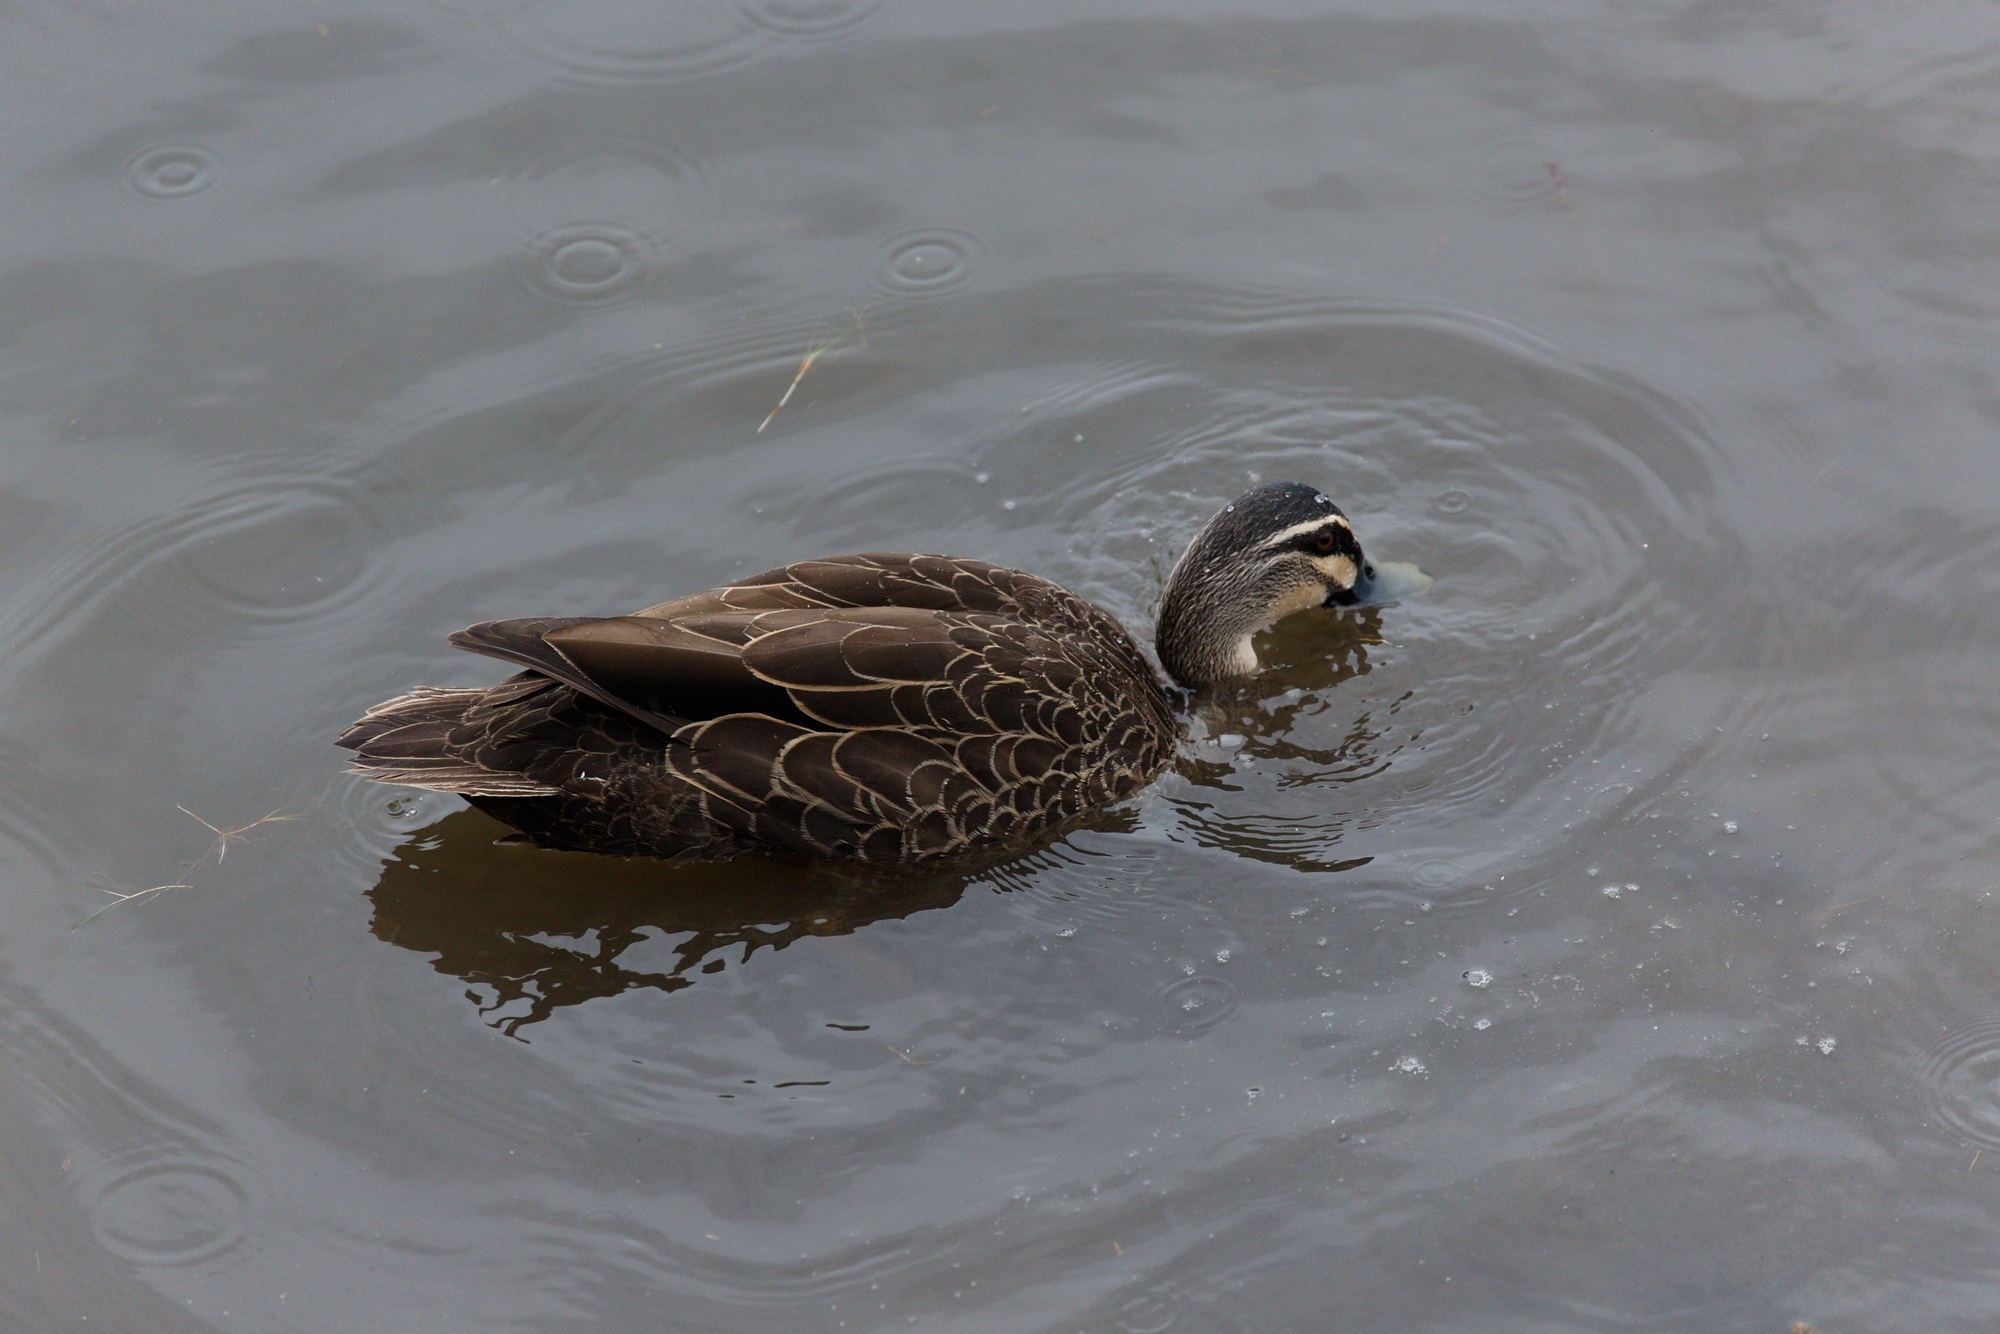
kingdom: Animalia
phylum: Chordata
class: Aves
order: Anseriformes
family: Anatidae
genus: Anas
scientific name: Anas superciliosa
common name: Pacific black duck
